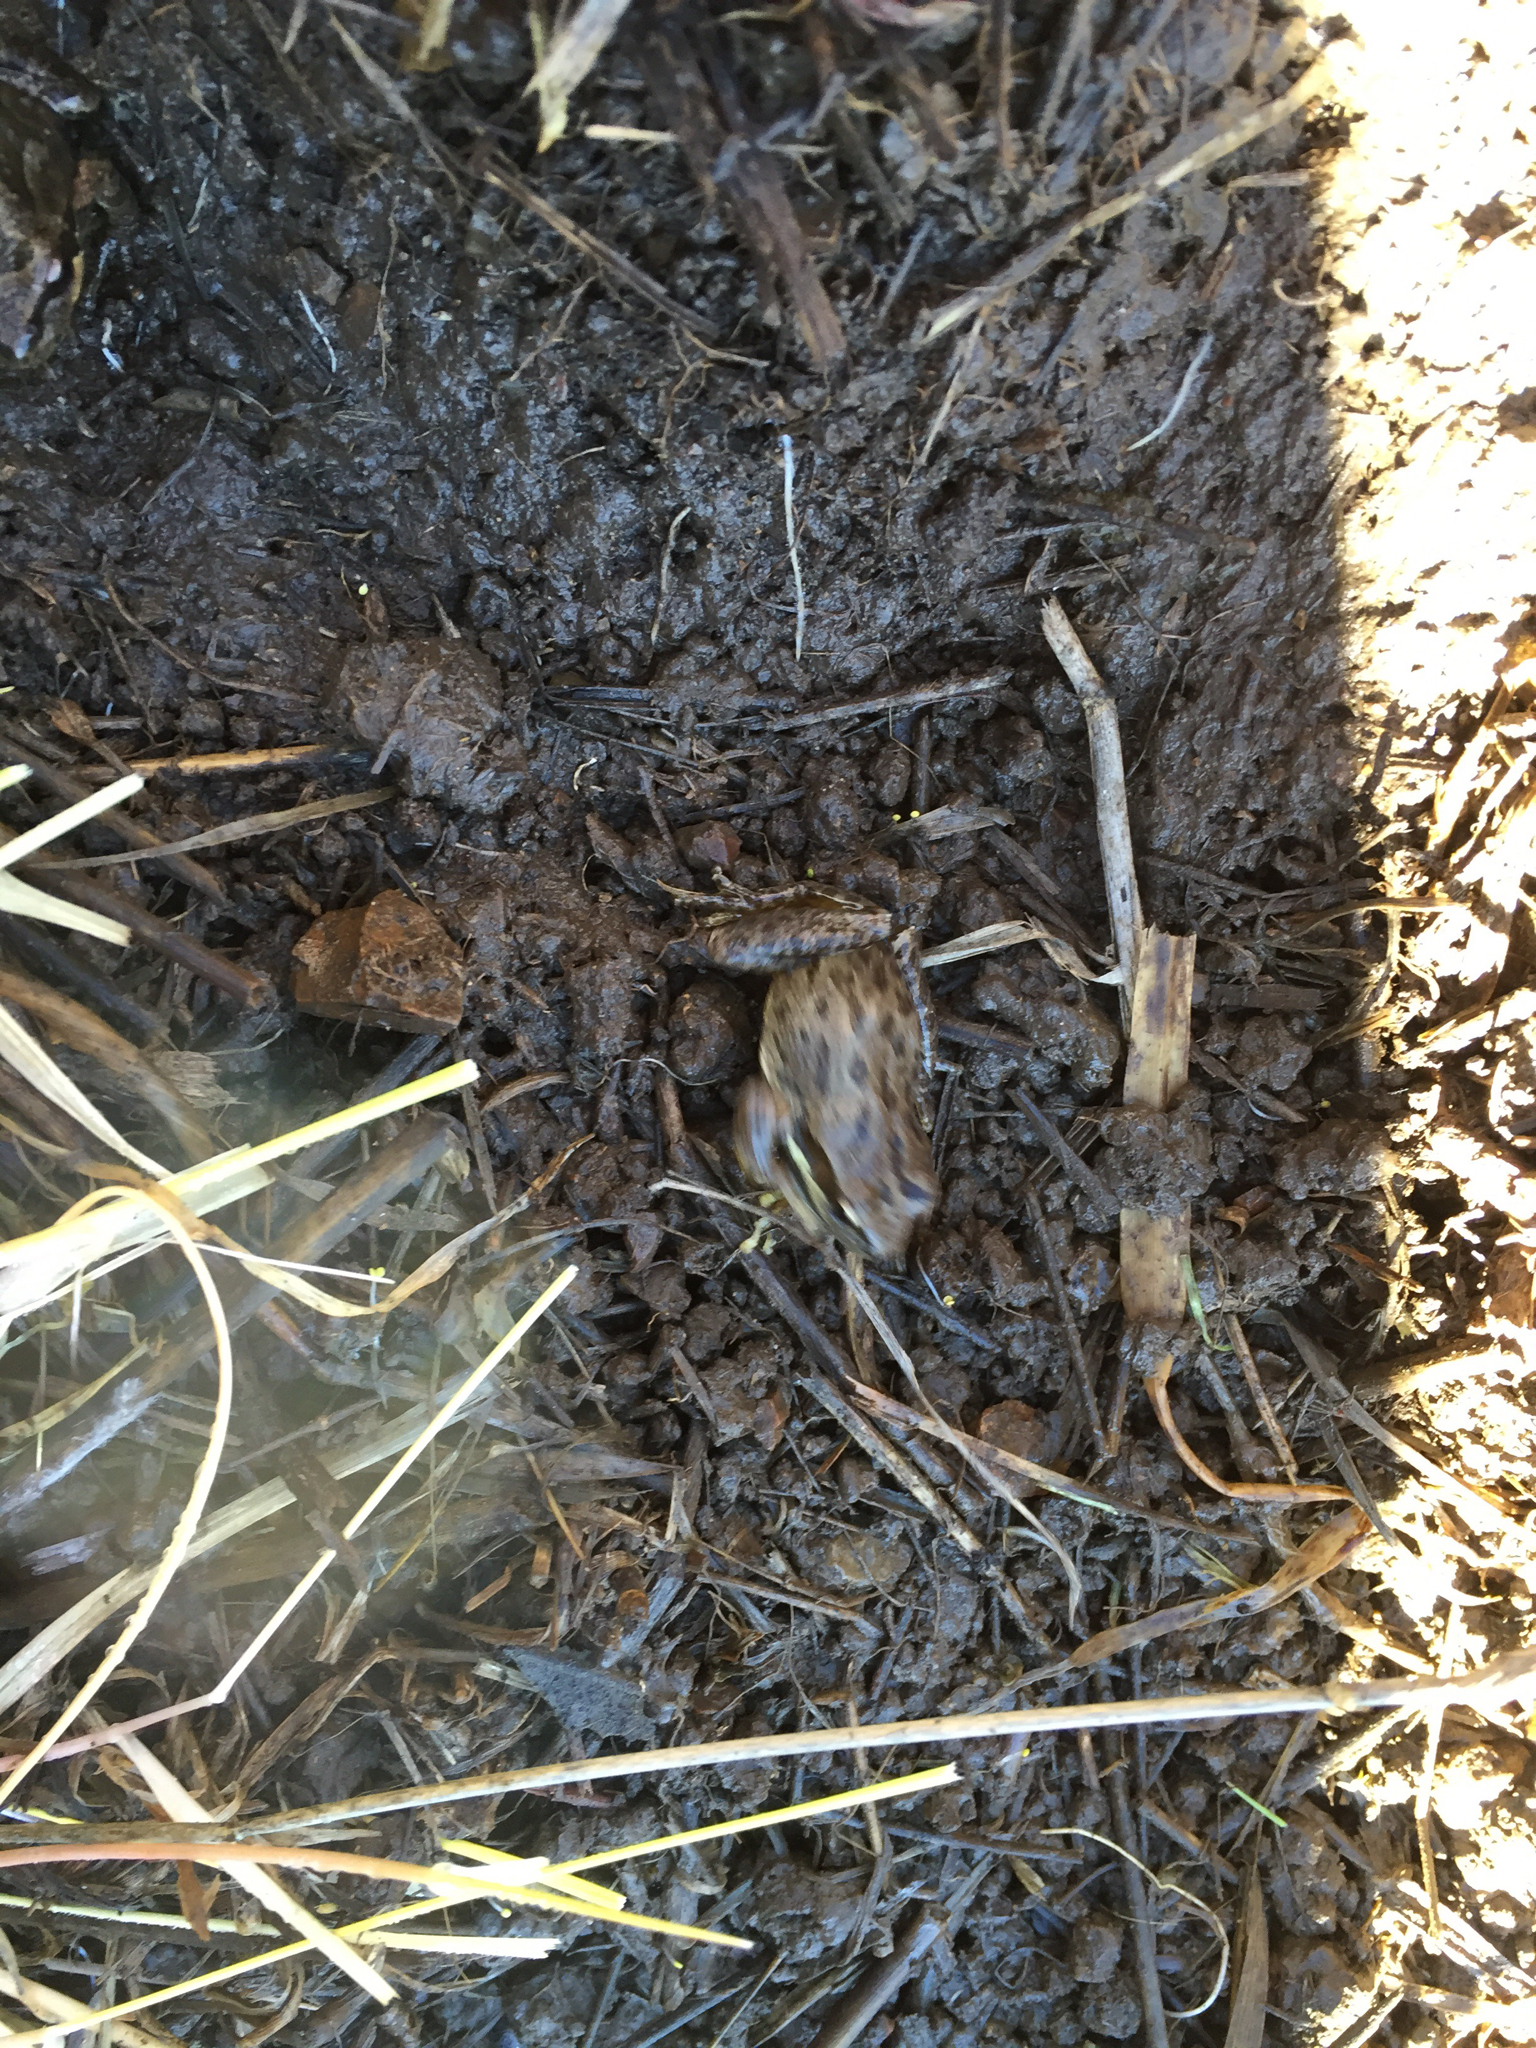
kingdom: Animalia
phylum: Chordata
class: Amphibia
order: Anura
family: Hylidae
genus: Pseudacris
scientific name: Pseudacris regilla
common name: Pacific chorus frog
